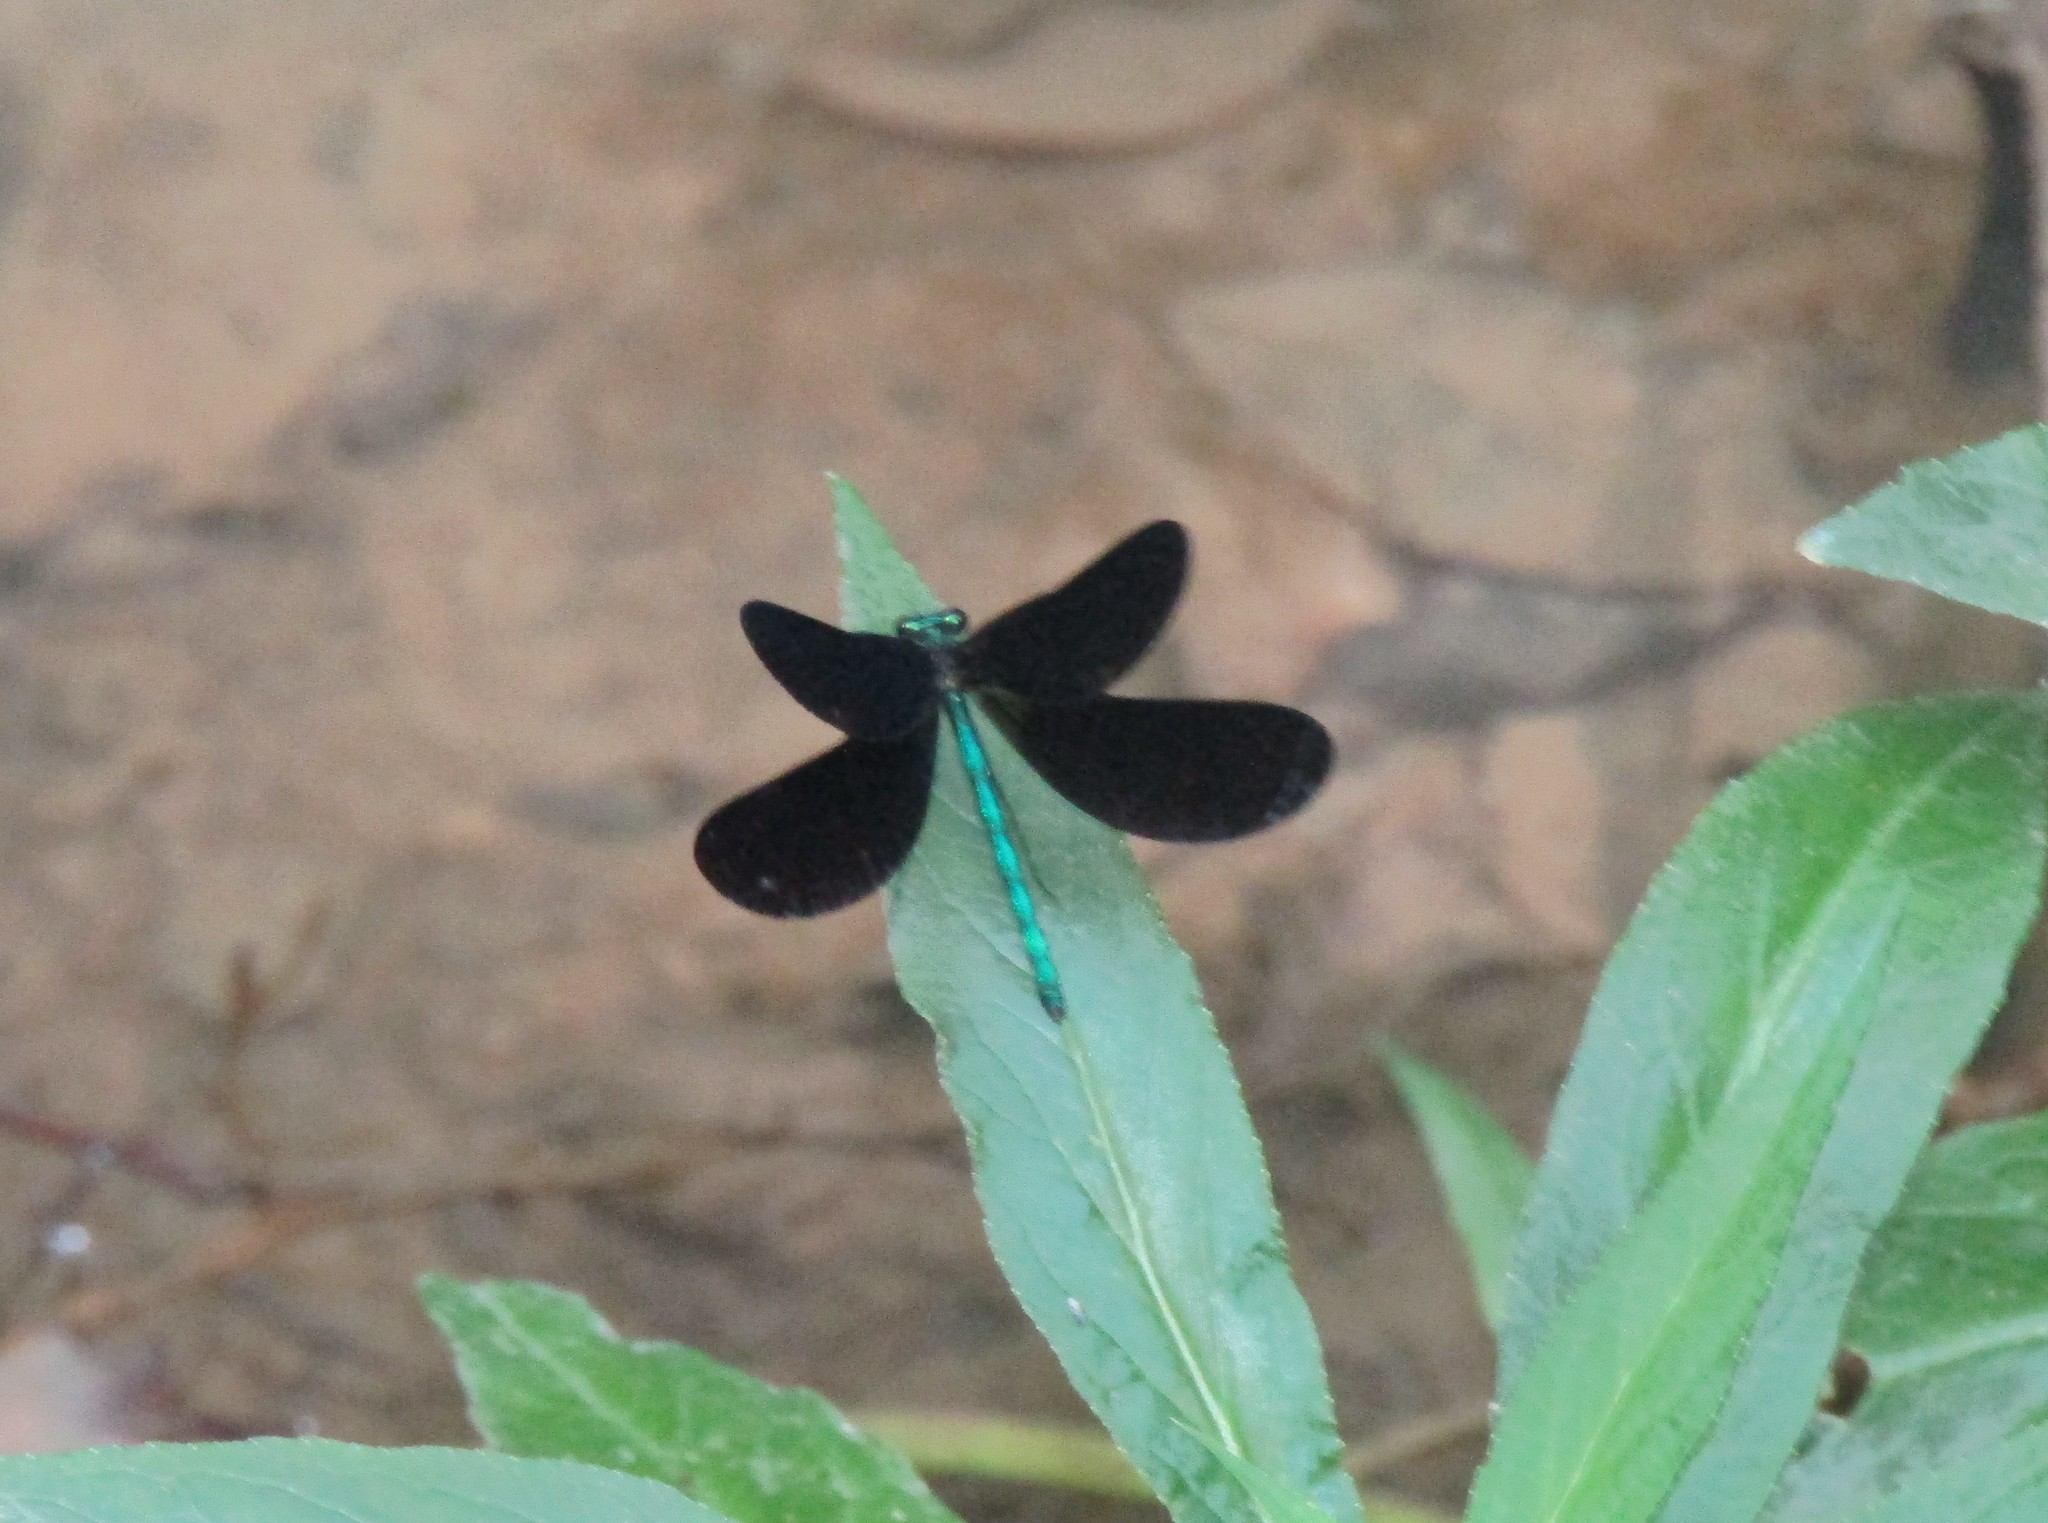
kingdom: Animalia
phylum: Arthropoda
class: Insecta
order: Odonata
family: Calopterygidae
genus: Calopteryx
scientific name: Calopteryx maculata
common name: Ebony jewelwing
